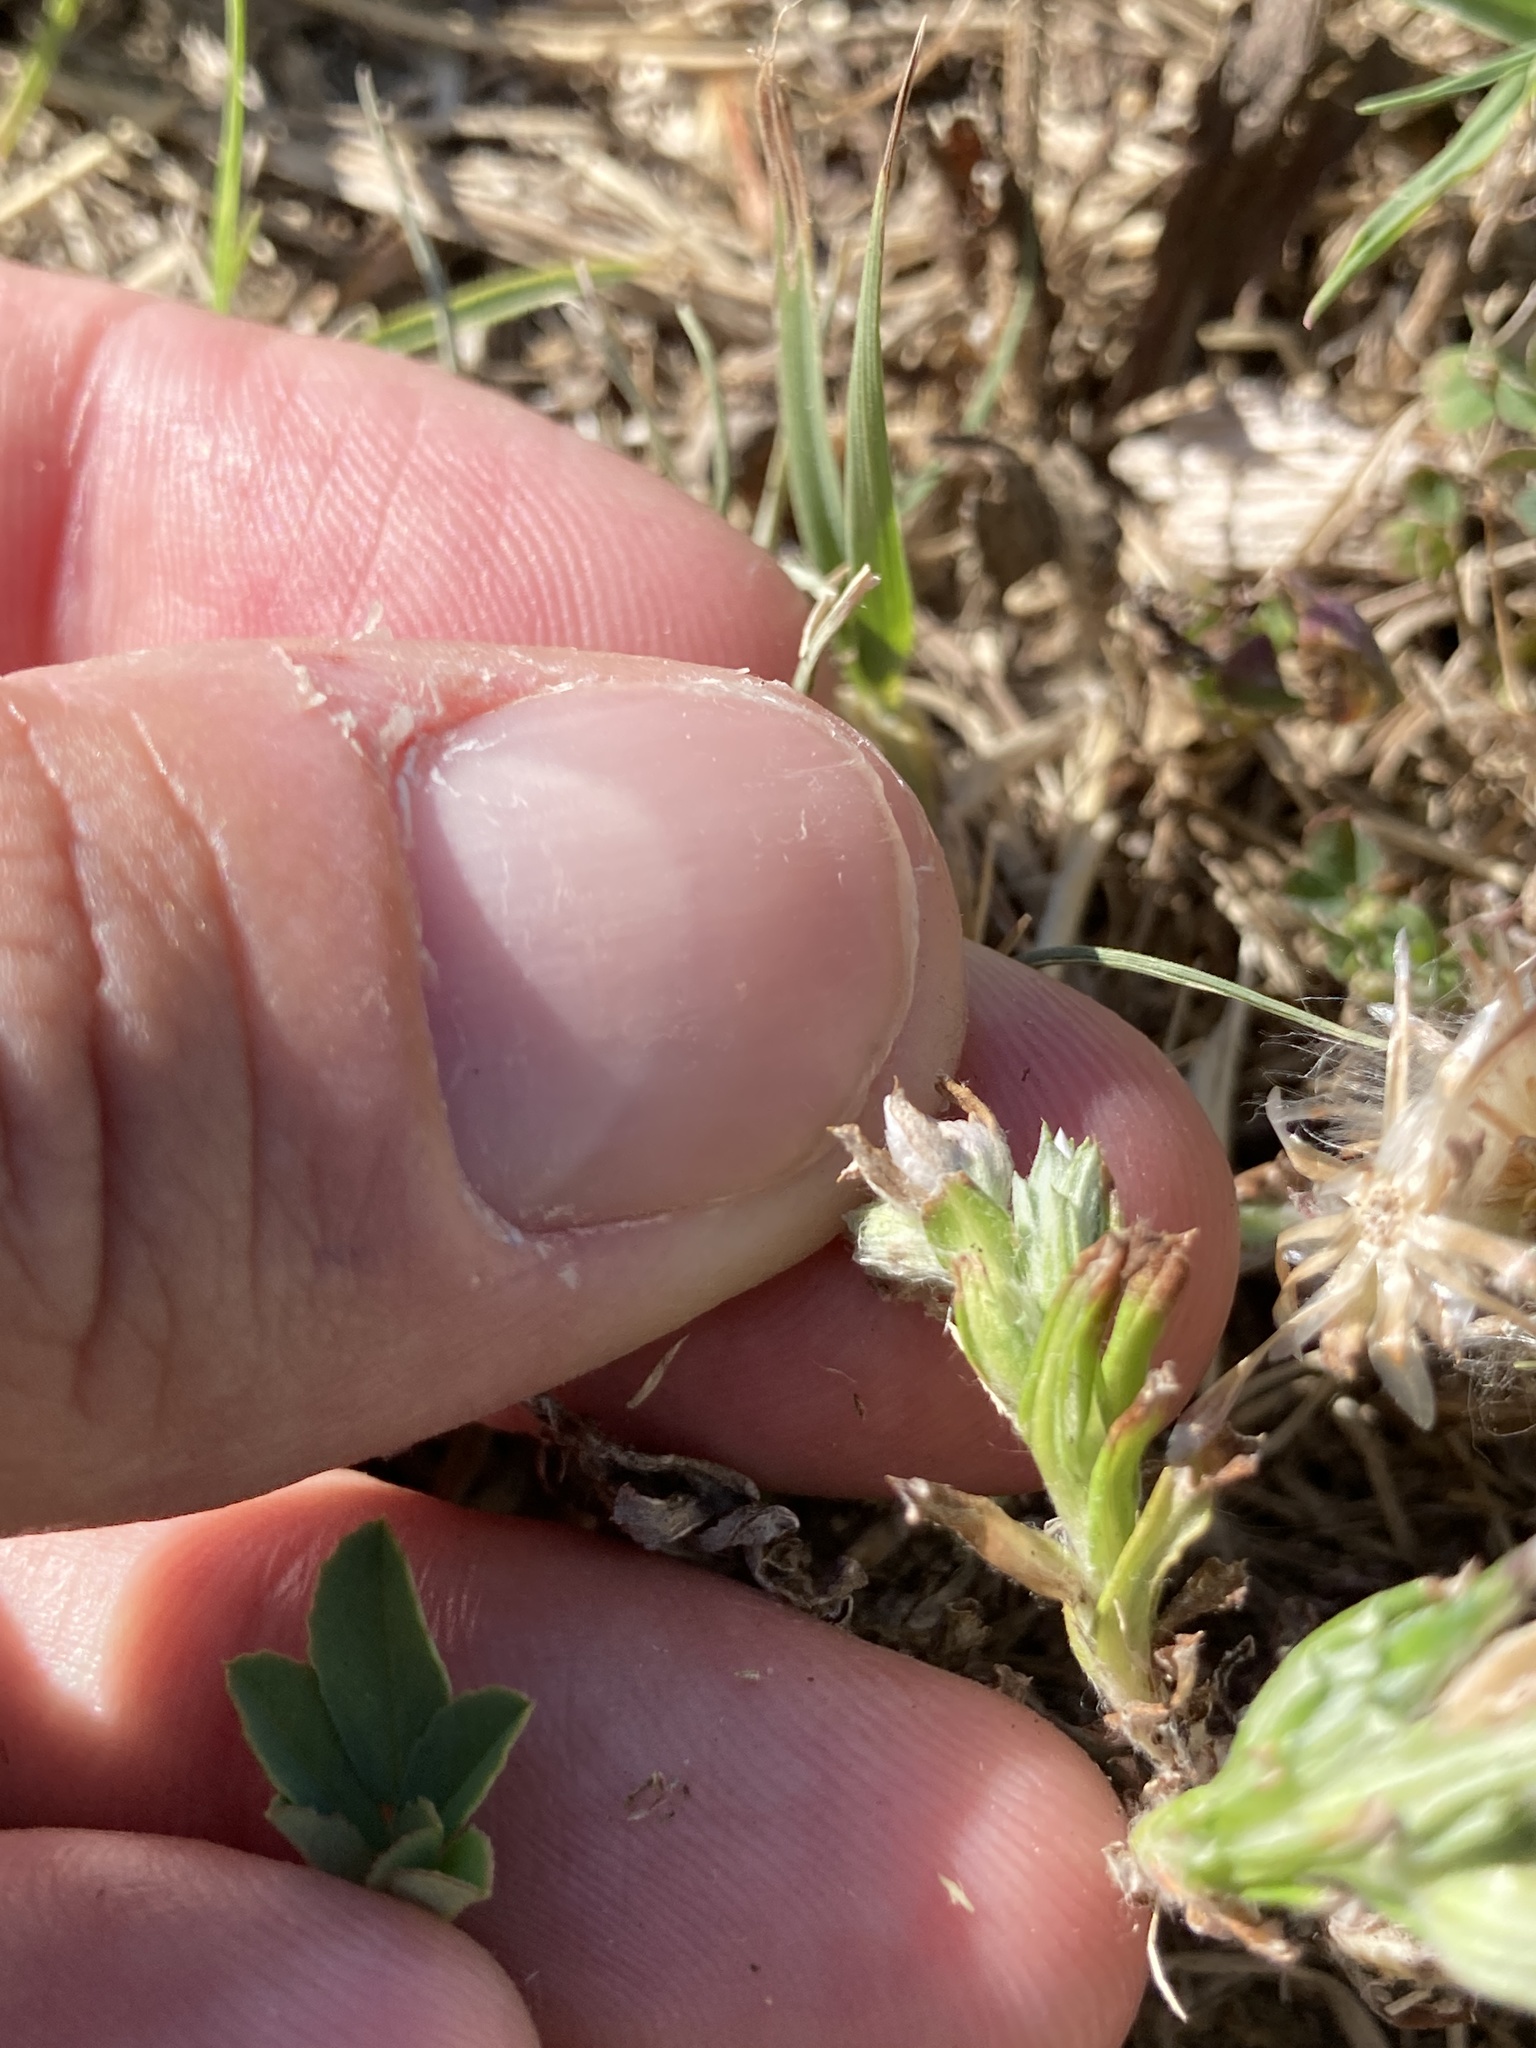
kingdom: Plantae
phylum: Tracheophyta
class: Magnoliopsida
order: Asterales
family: Asteraceae
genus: Facelis
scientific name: Facelis retusa
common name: Annual trampweed
